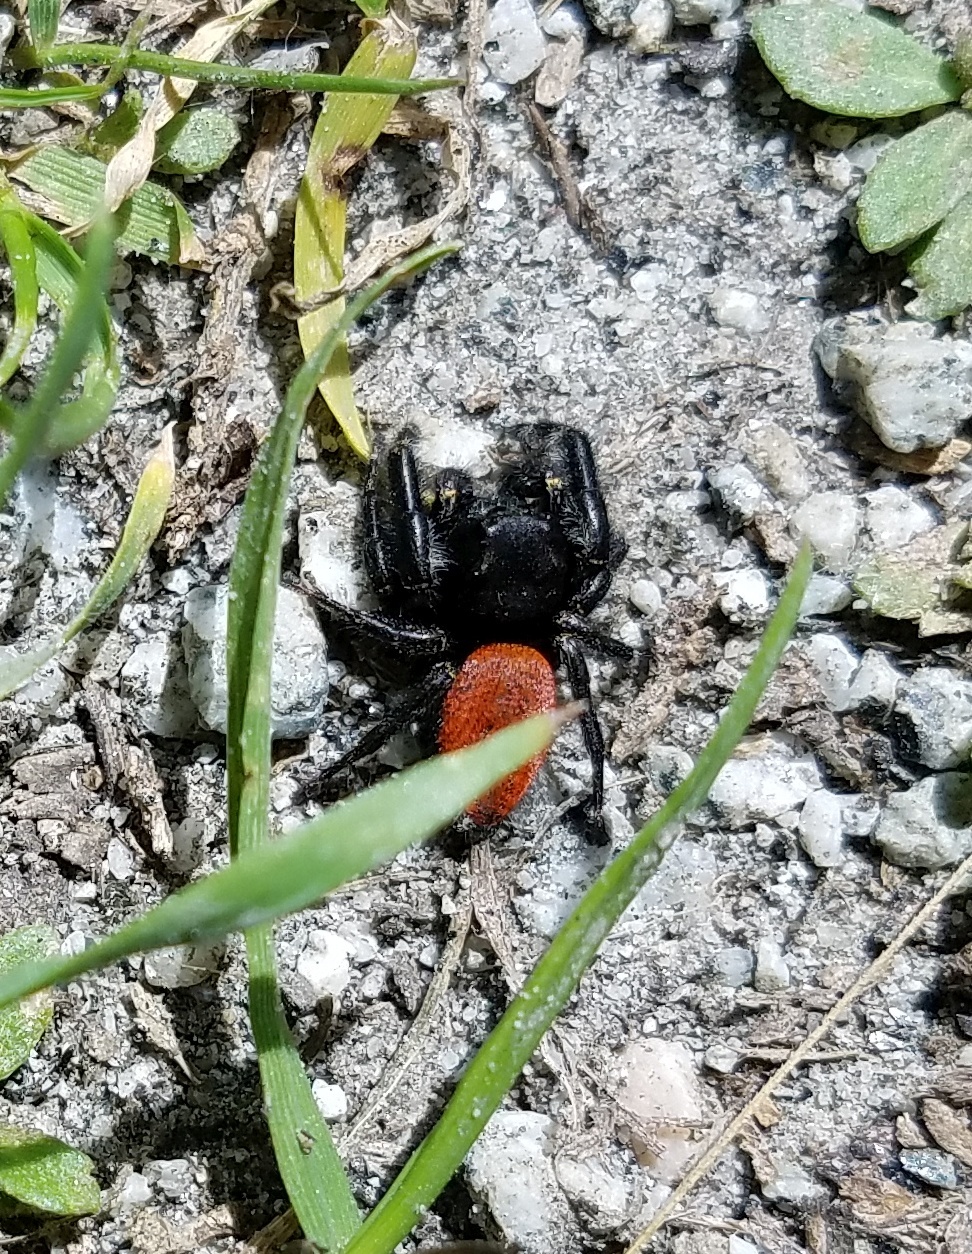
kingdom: Animalia
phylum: Arthropoda
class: Arachnida
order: Araneae
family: Salticidae
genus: Phidippus
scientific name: Phidippus johnsoni
